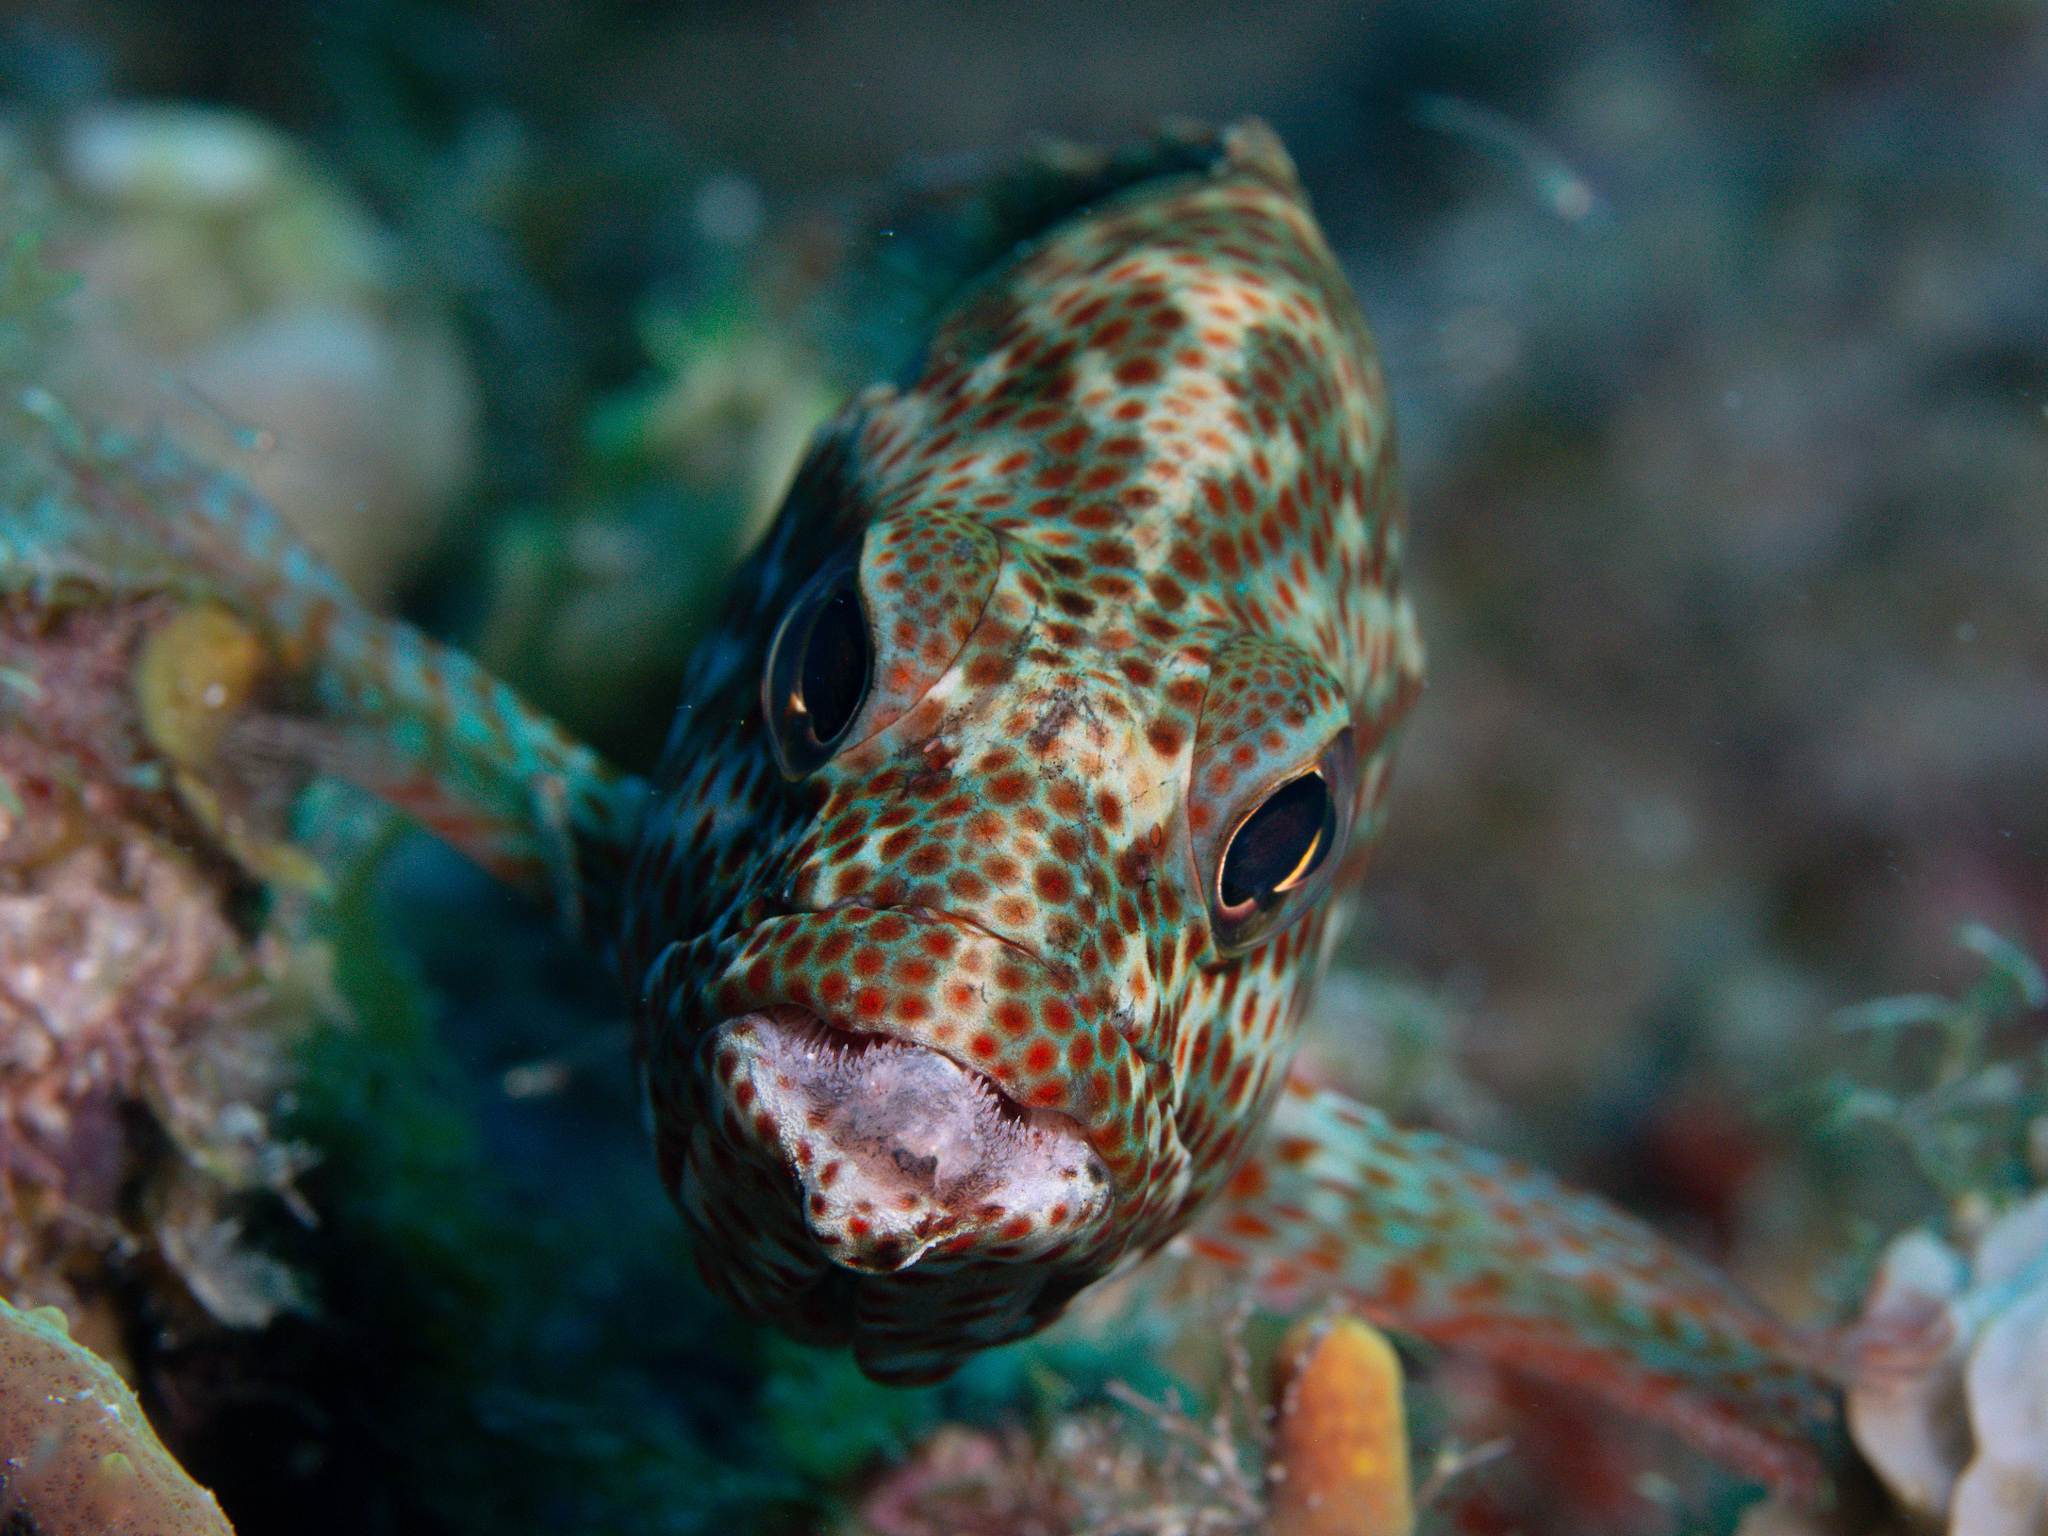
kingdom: Animalia
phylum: Chordata
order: Perciformes
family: Serranidae
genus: Cephalopholis
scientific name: Cephalopholis cruentata
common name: Graysby
